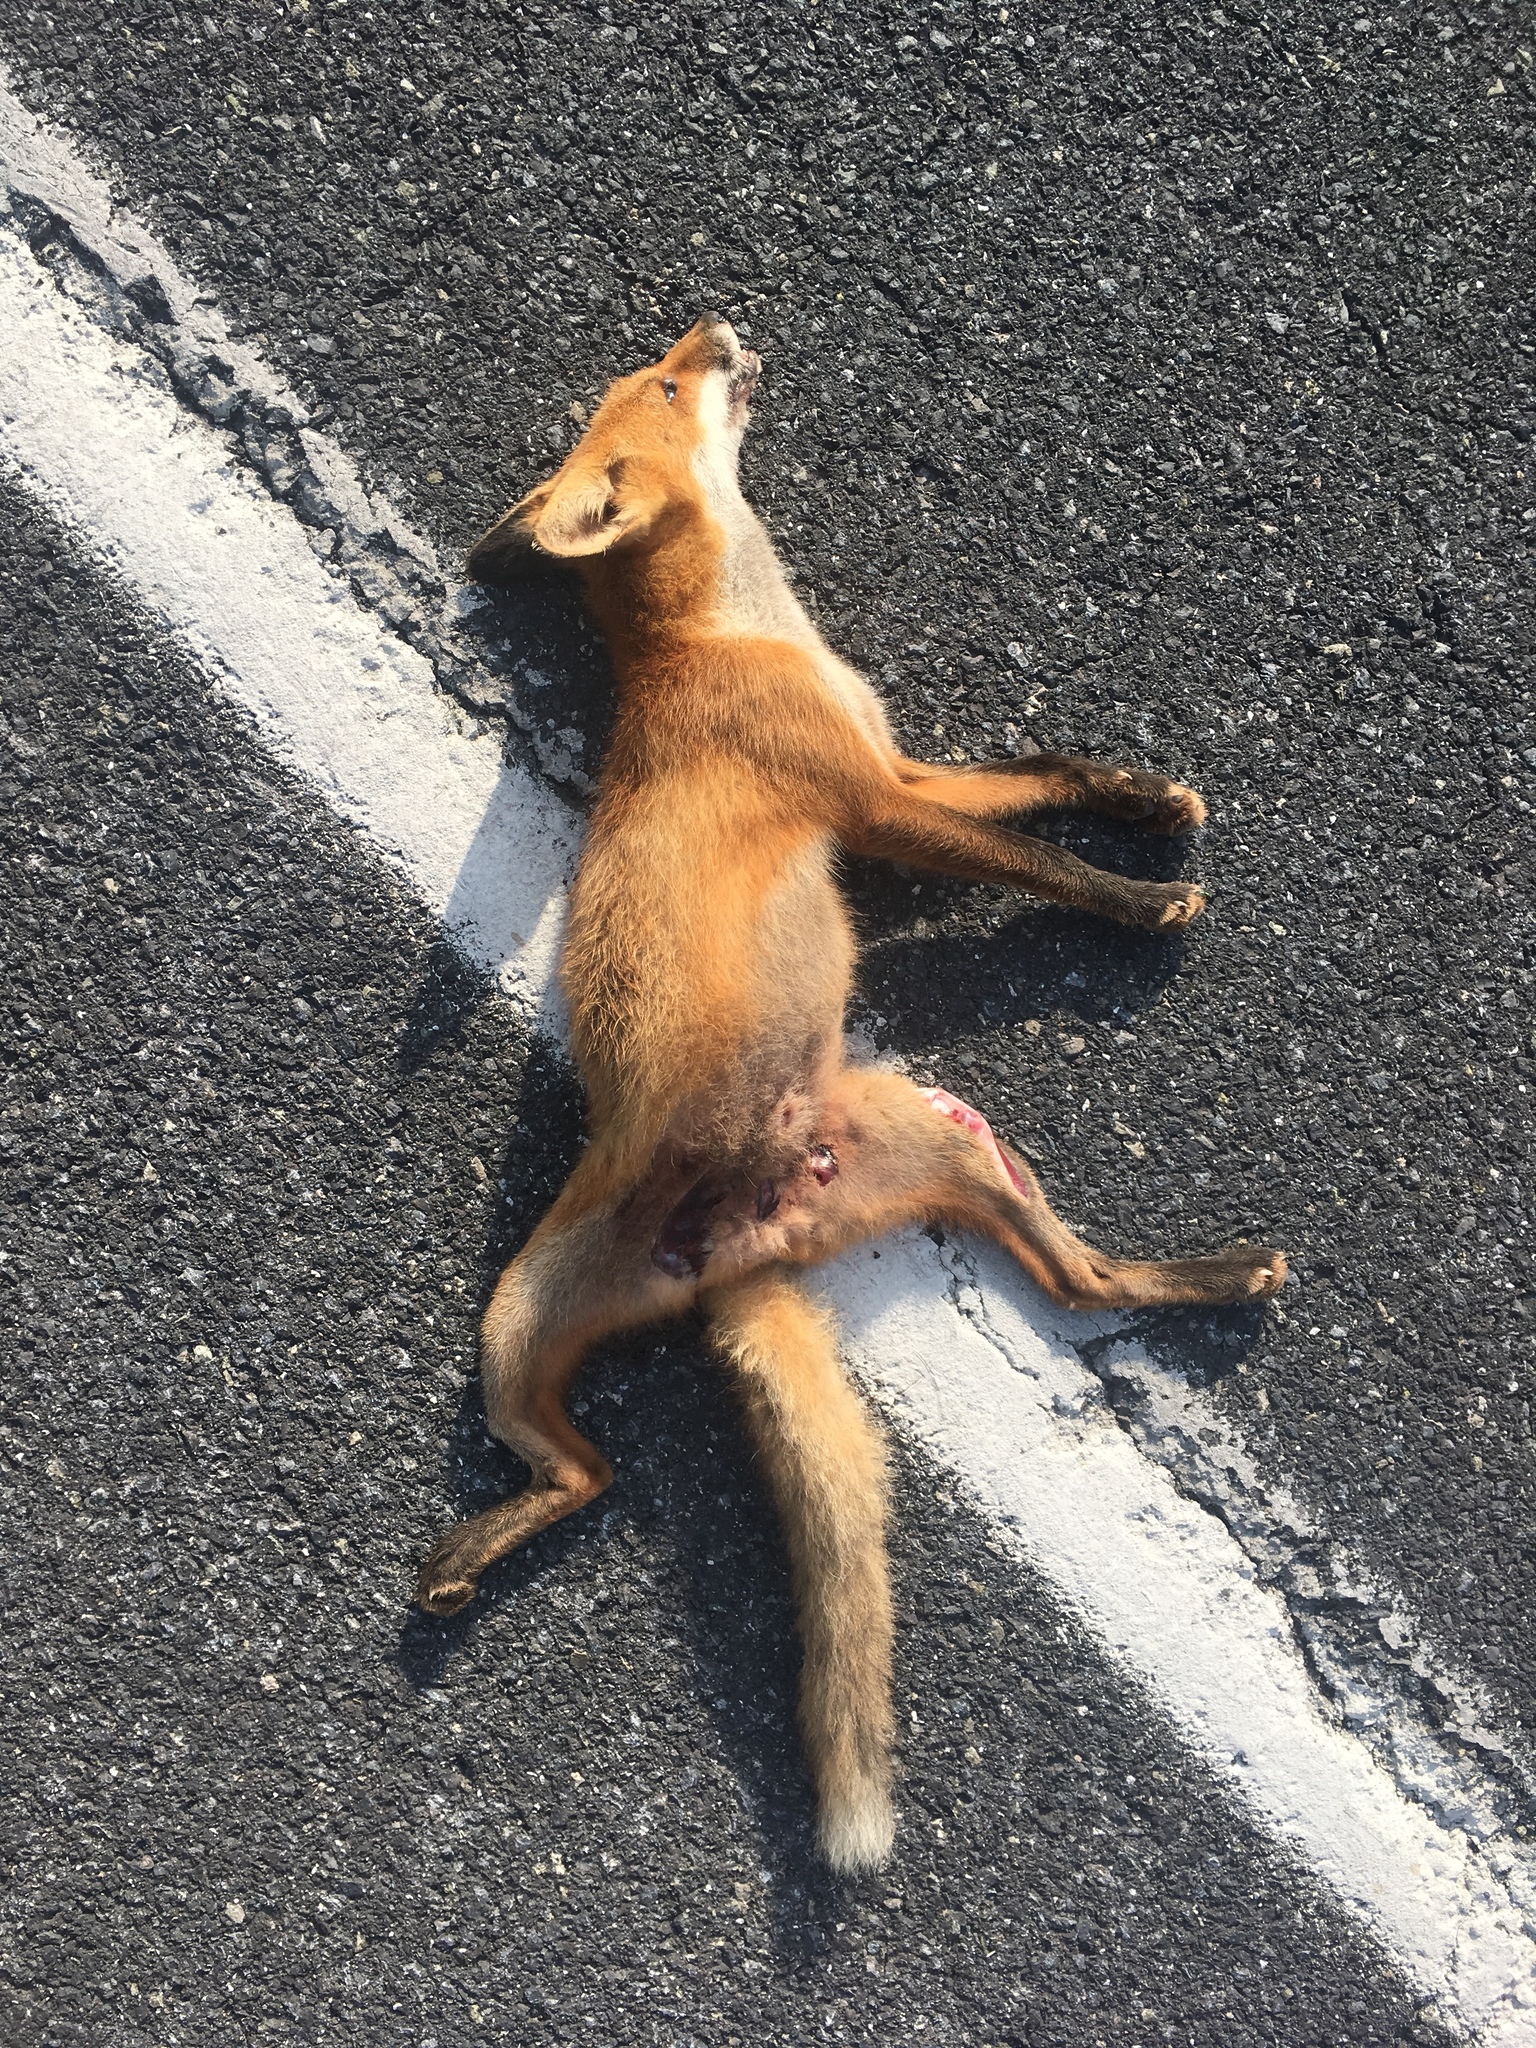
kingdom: Animalia
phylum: Chordata
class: Mammalia
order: Carnivora
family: Canidae
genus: Vulpes
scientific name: Vulpes vulpes
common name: Red fox
